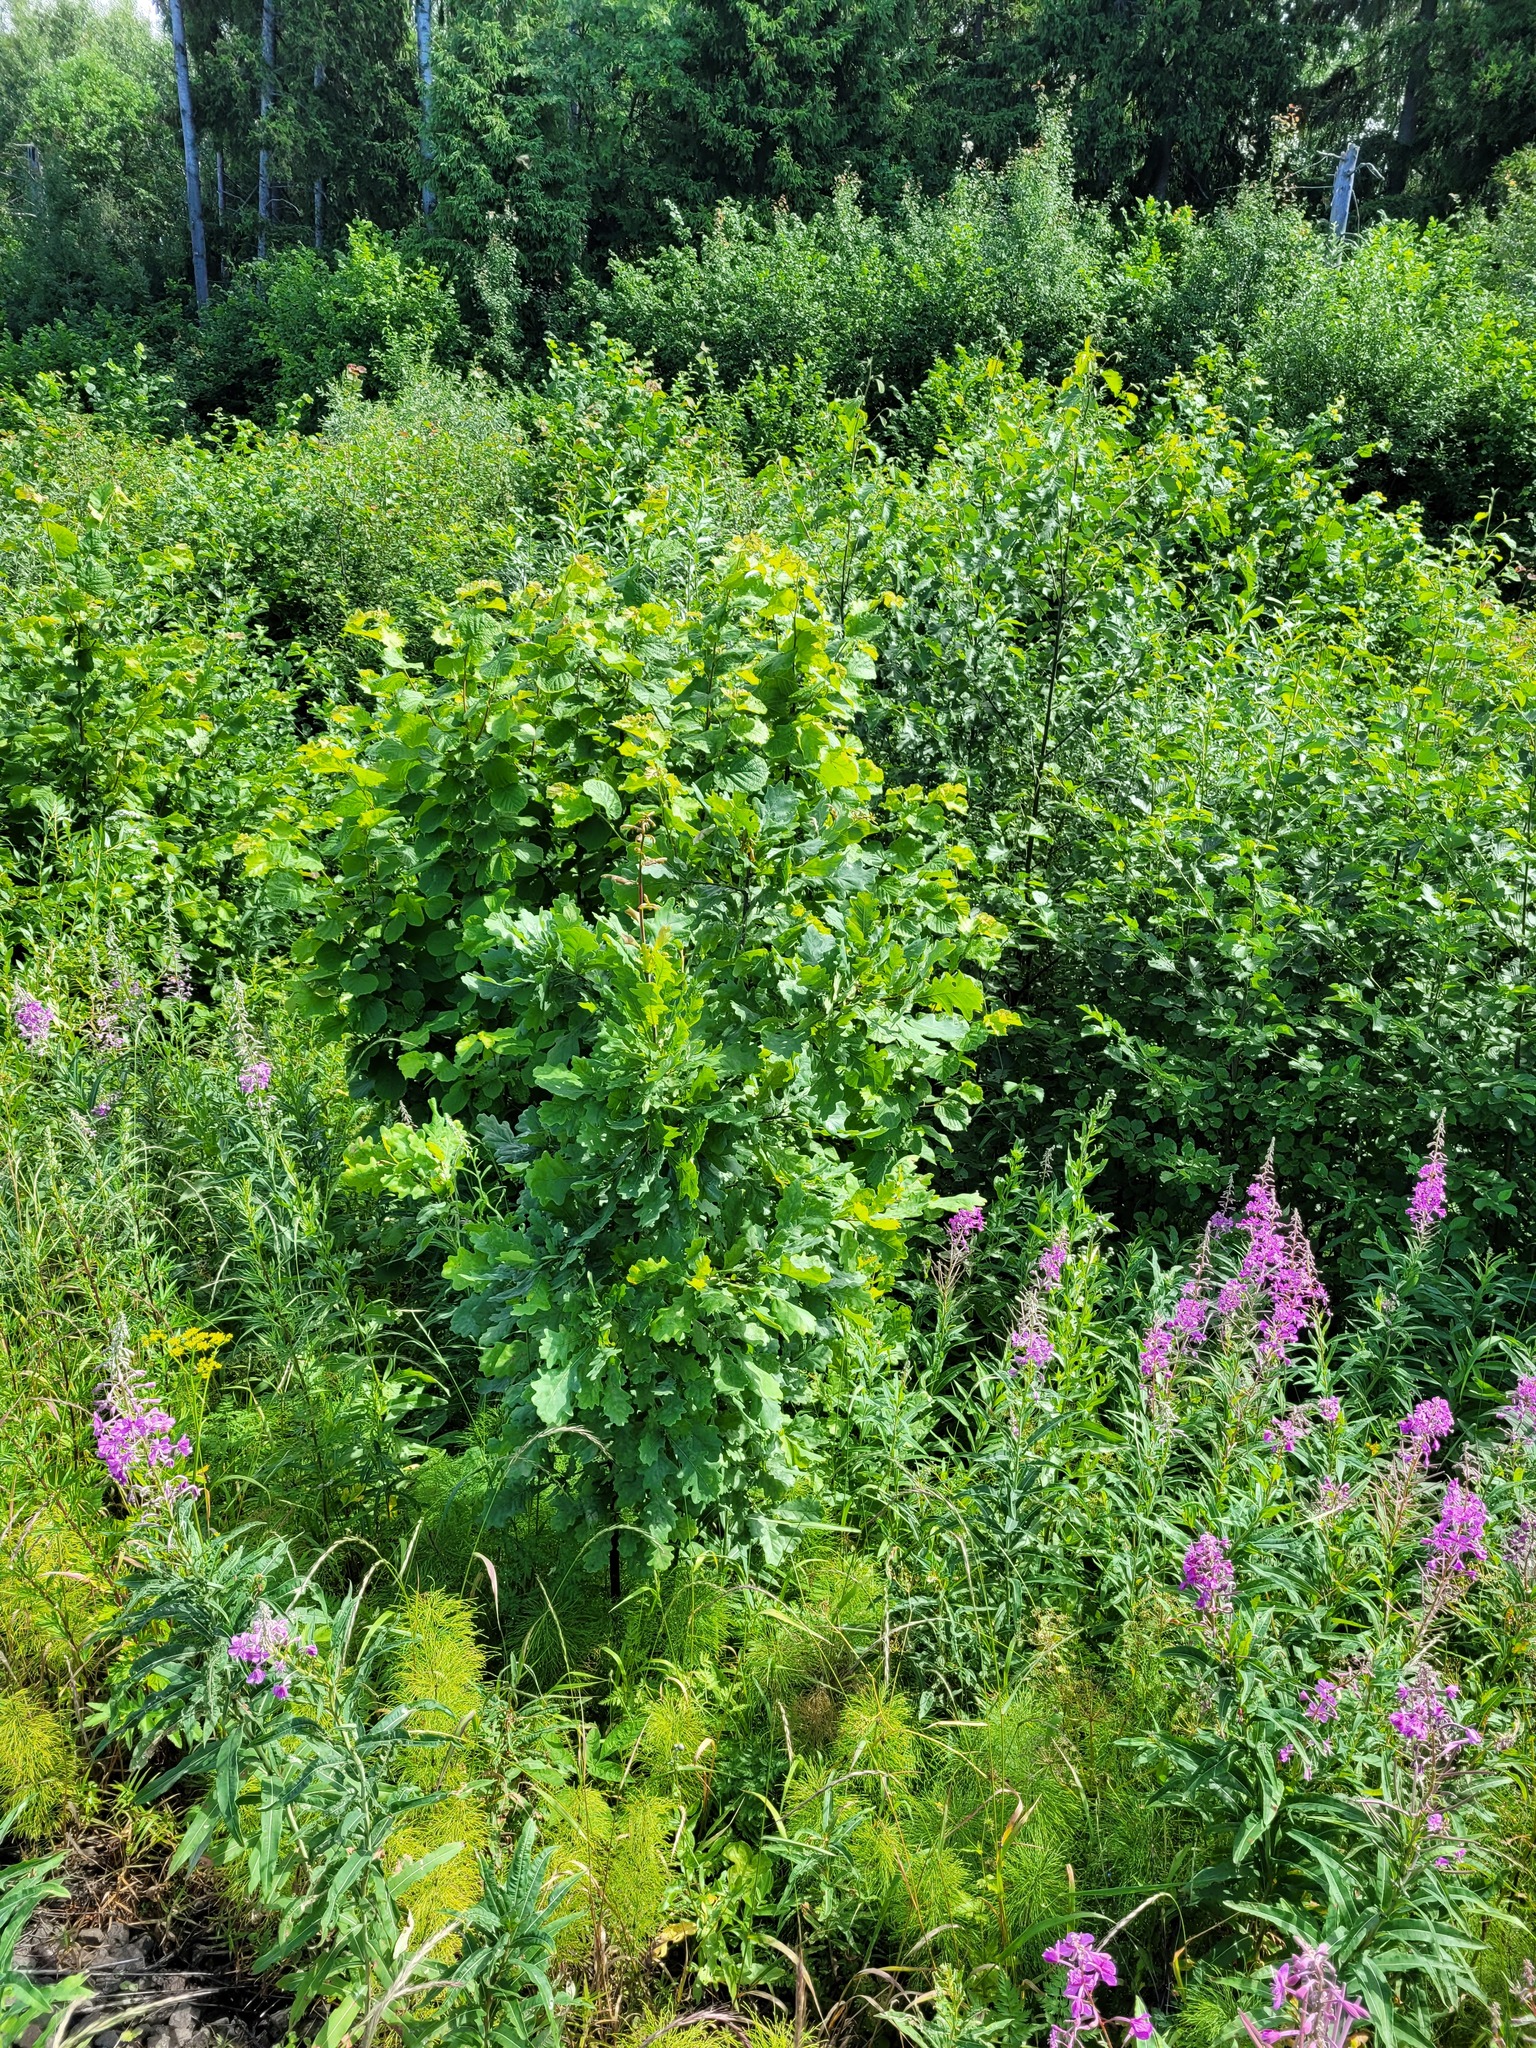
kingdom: Plantae
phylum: Tracheophyta
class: Magnoliopsida
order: Fagales
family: Fagaceae
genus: Quercus
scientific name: Quercus robur
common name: Pedunculate oak
